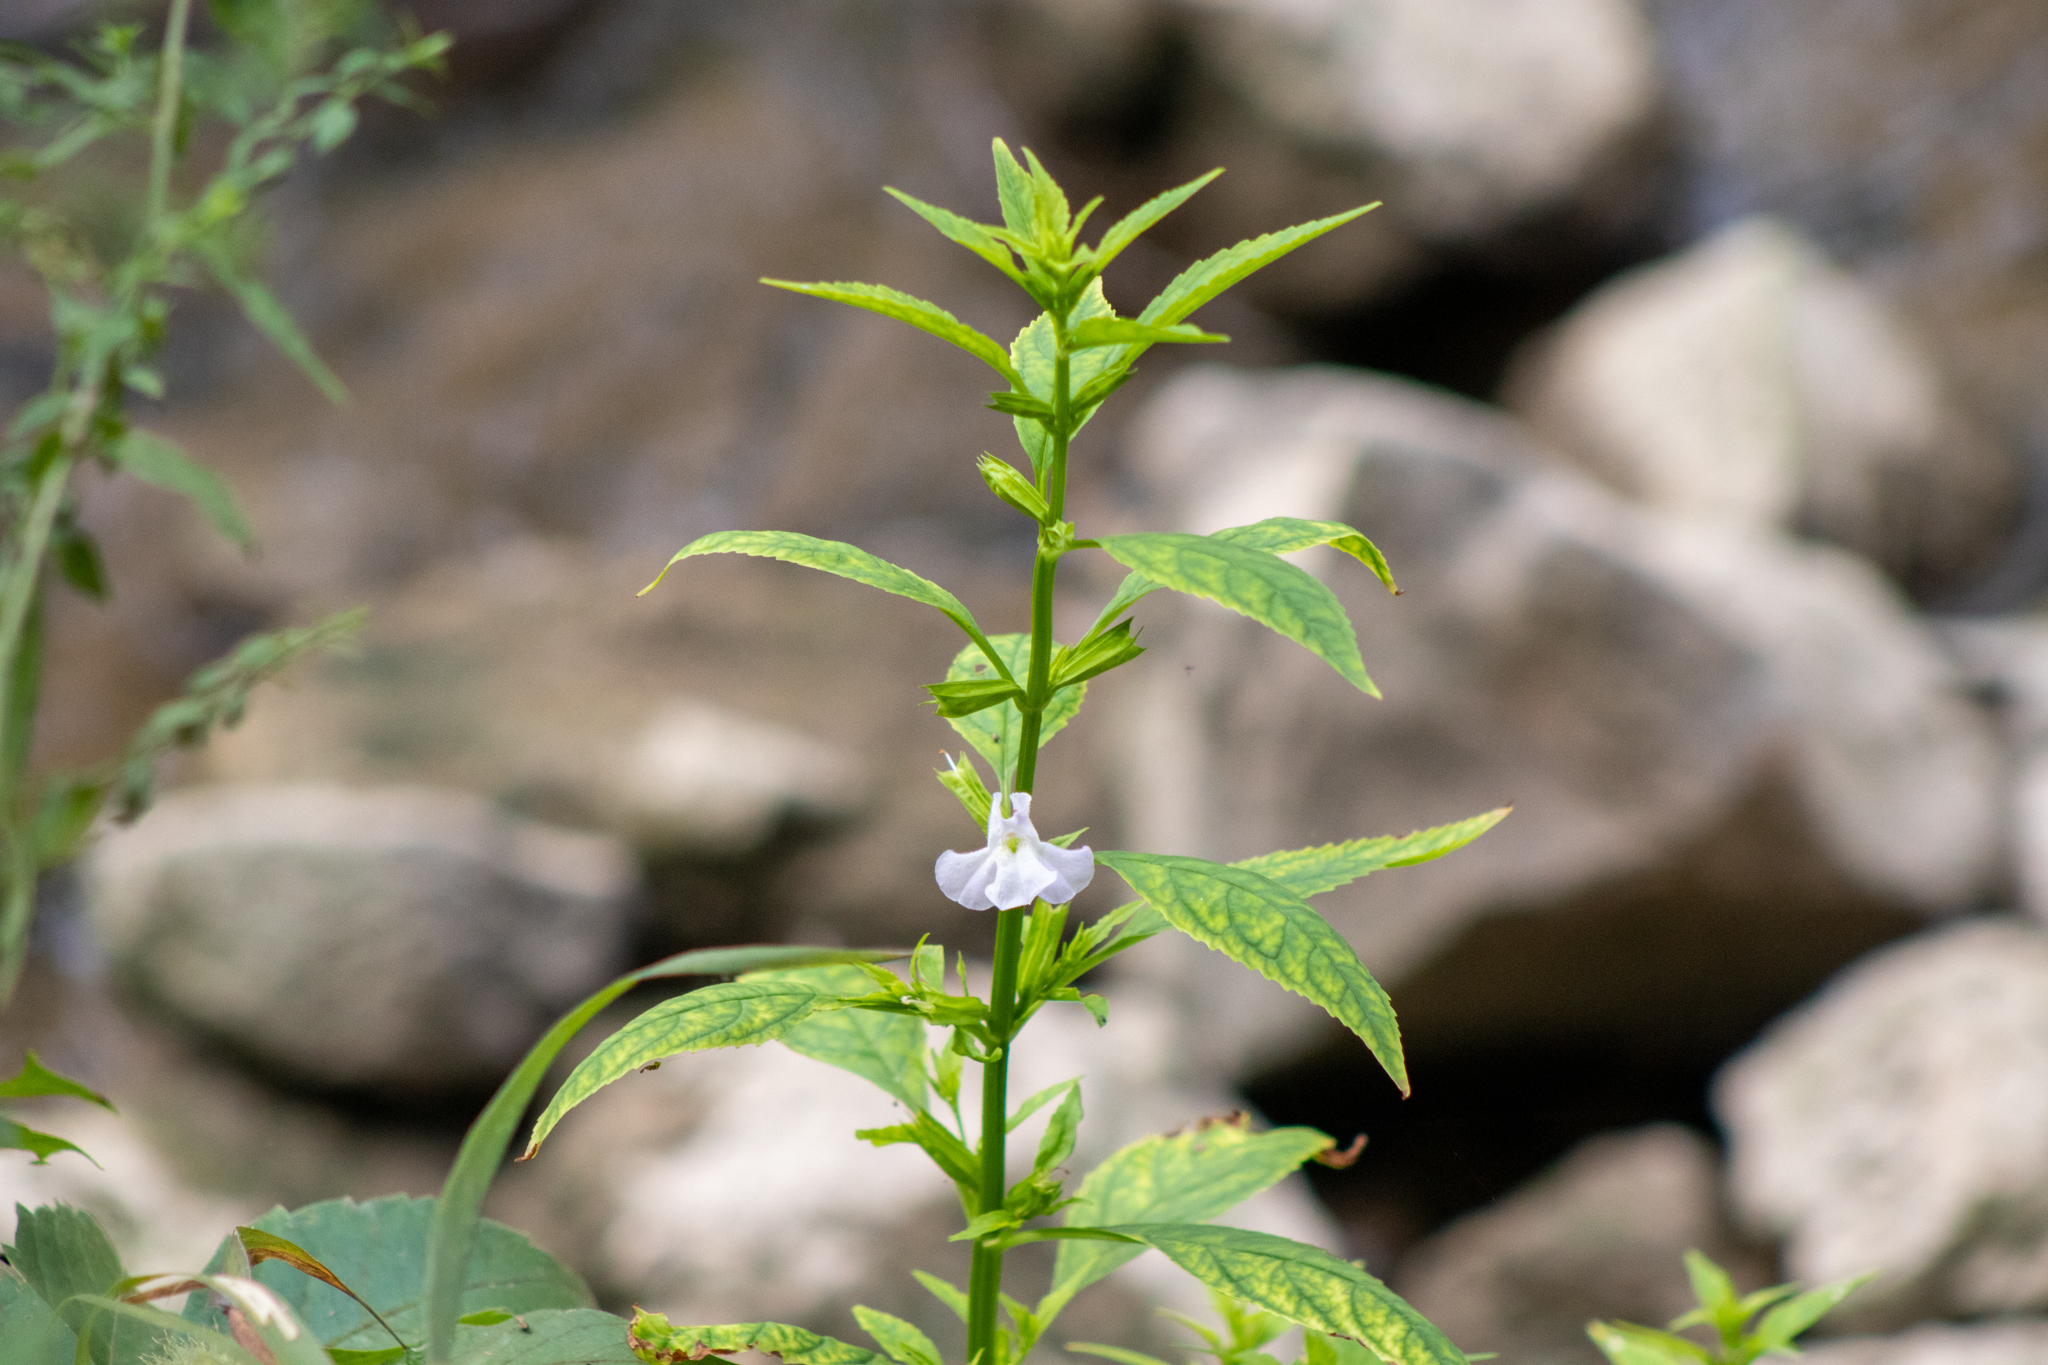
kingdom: Plantae
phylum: Tracheophyta
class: Magnoliopsida
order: Lamiales
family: Phrymaceae
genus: Mimulus
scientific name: Mimulus alatus
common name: Sharp-wing monkey-flower
